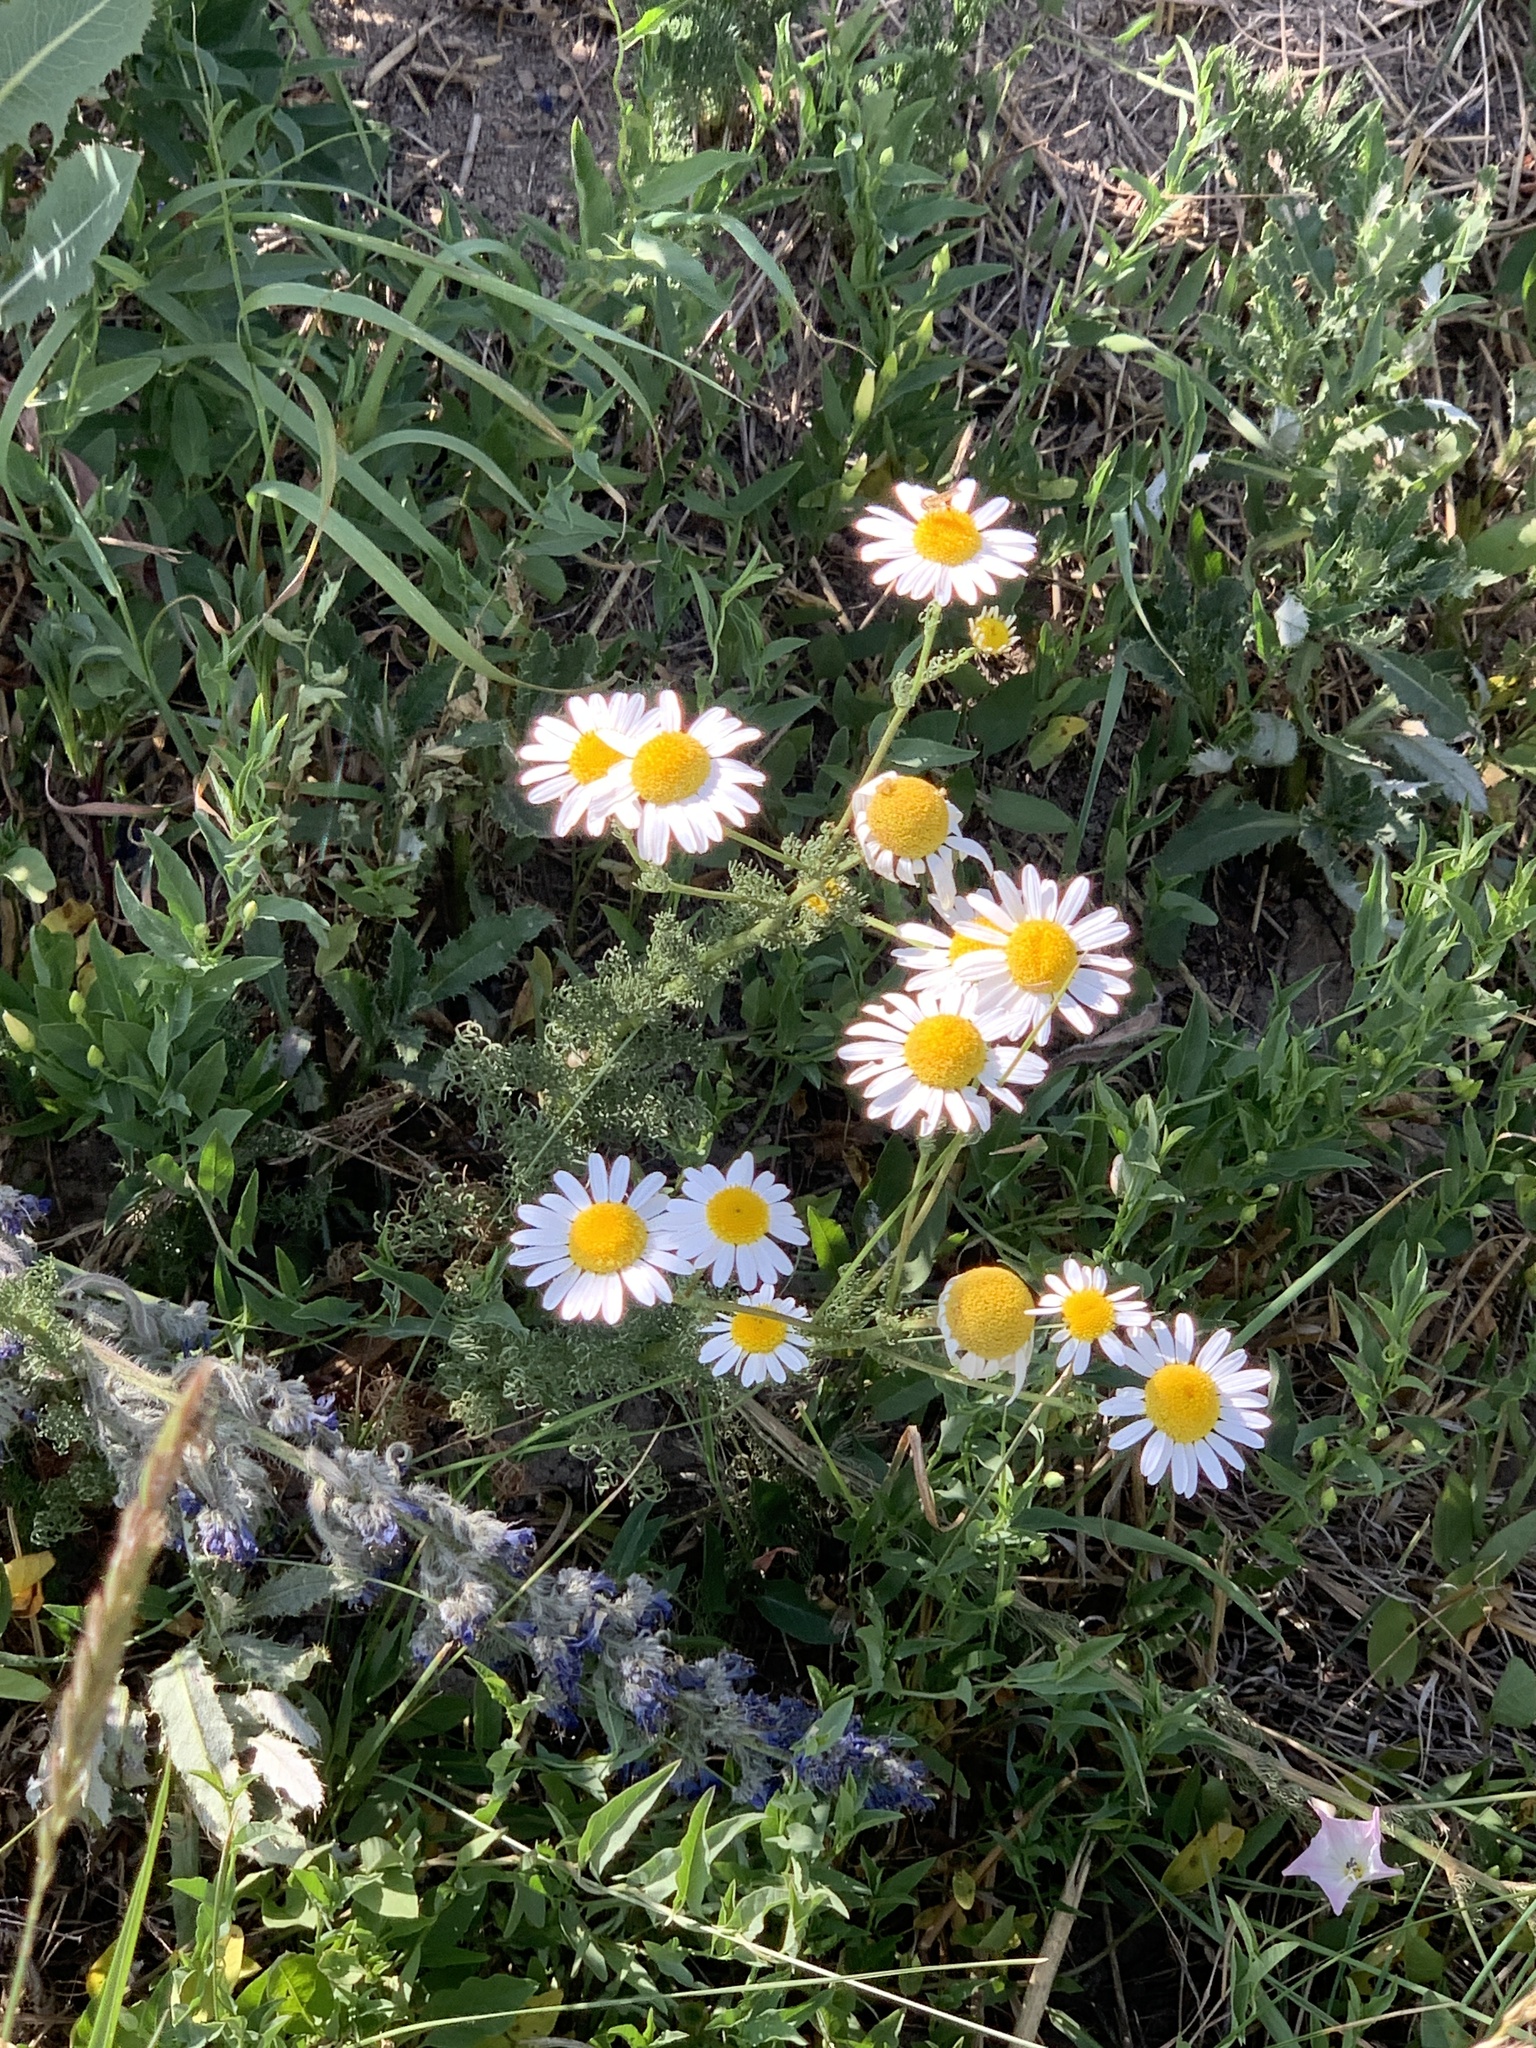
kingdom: Plantae
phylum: Tracheophyta
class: Magnoliopsida
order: Asterales
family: Asteraceae
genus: Tripleurospermum
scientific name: Tripleurospermum inodorum
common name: Scentless mayweed
